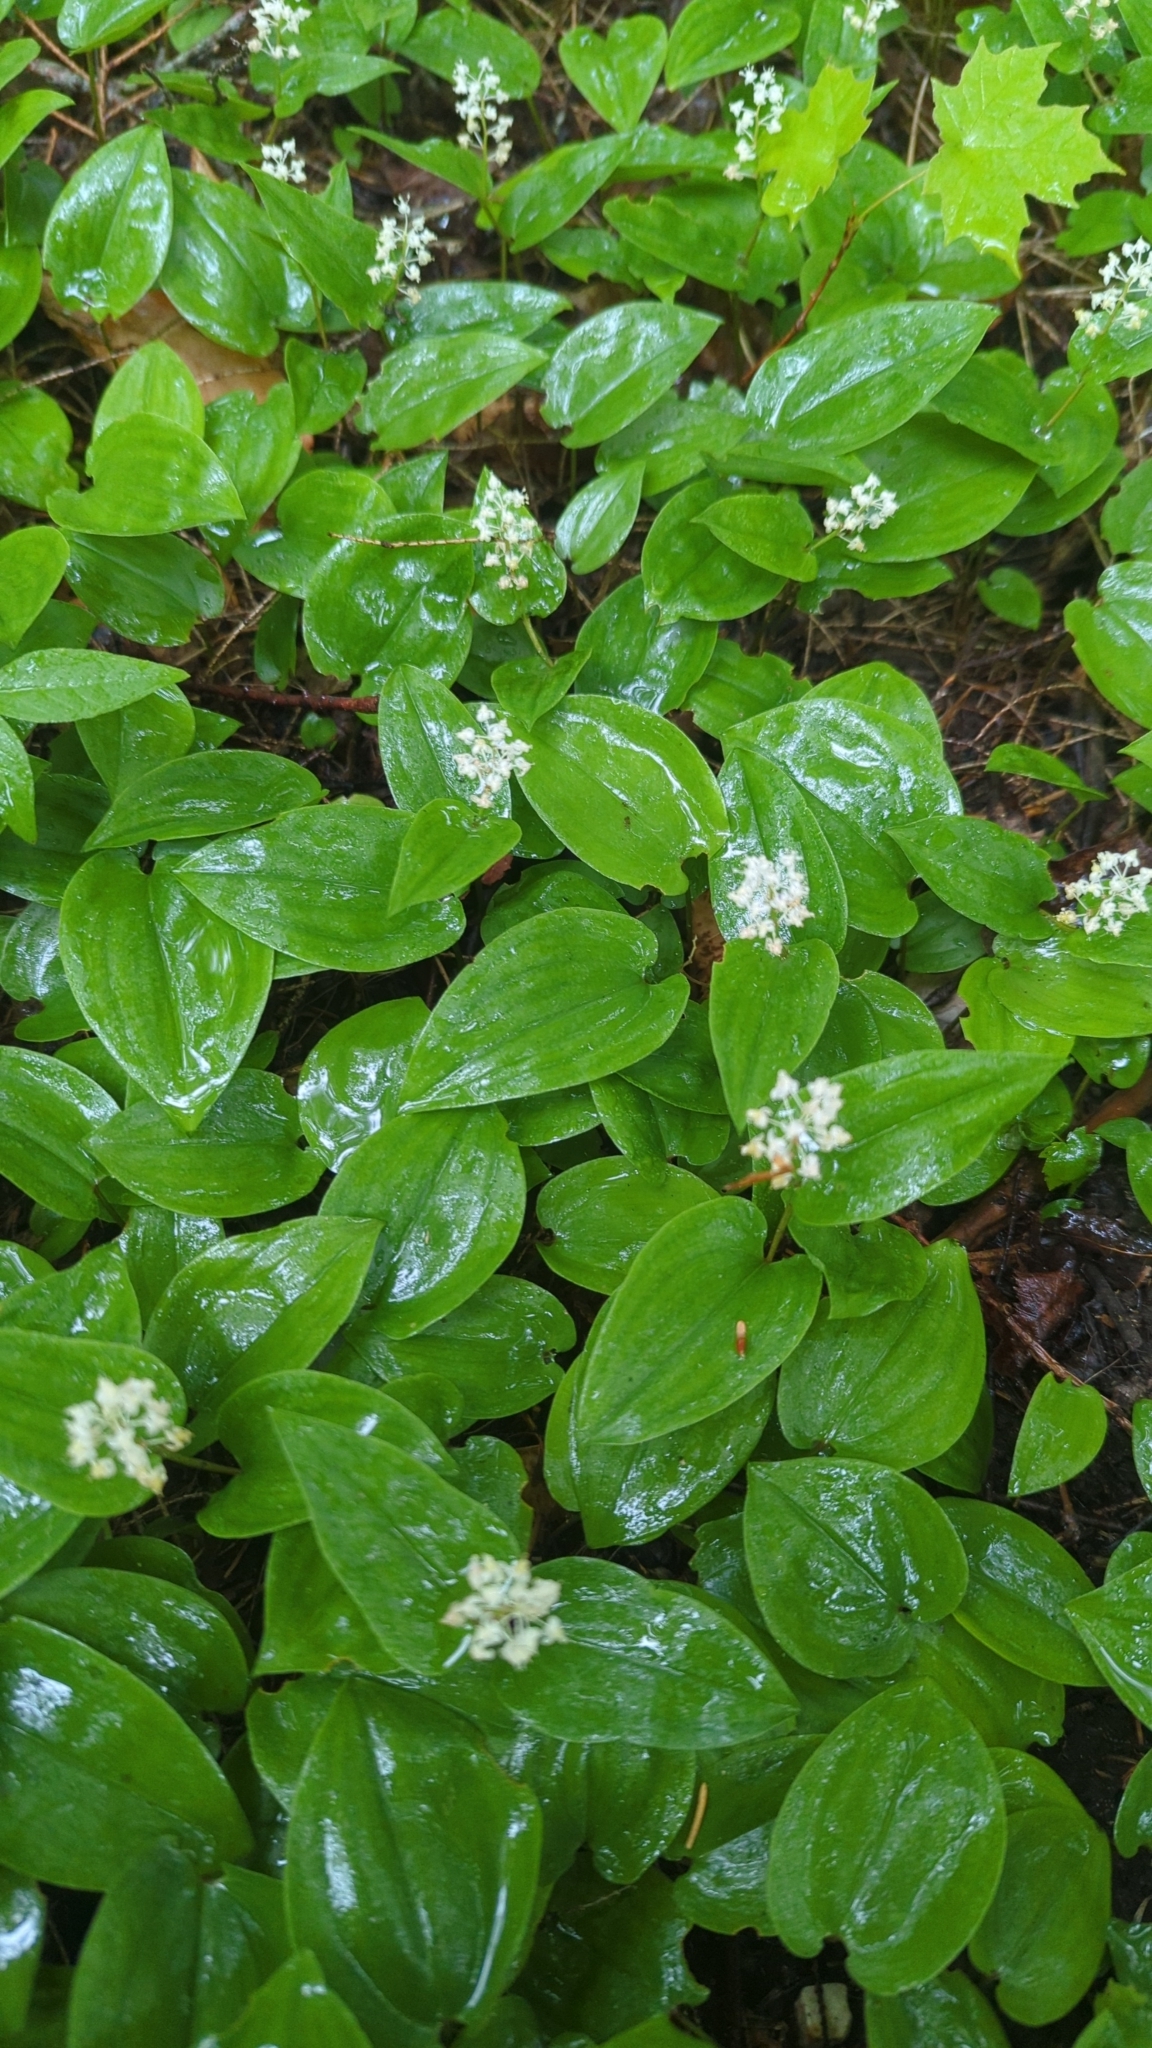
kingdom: Plantae
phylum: Tracheophyta
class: Liliopsida
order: Asparagales
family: Asparagaceae
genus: Maianthemum
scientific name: Maianthemum canadense
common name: False lily-of-the-valley
